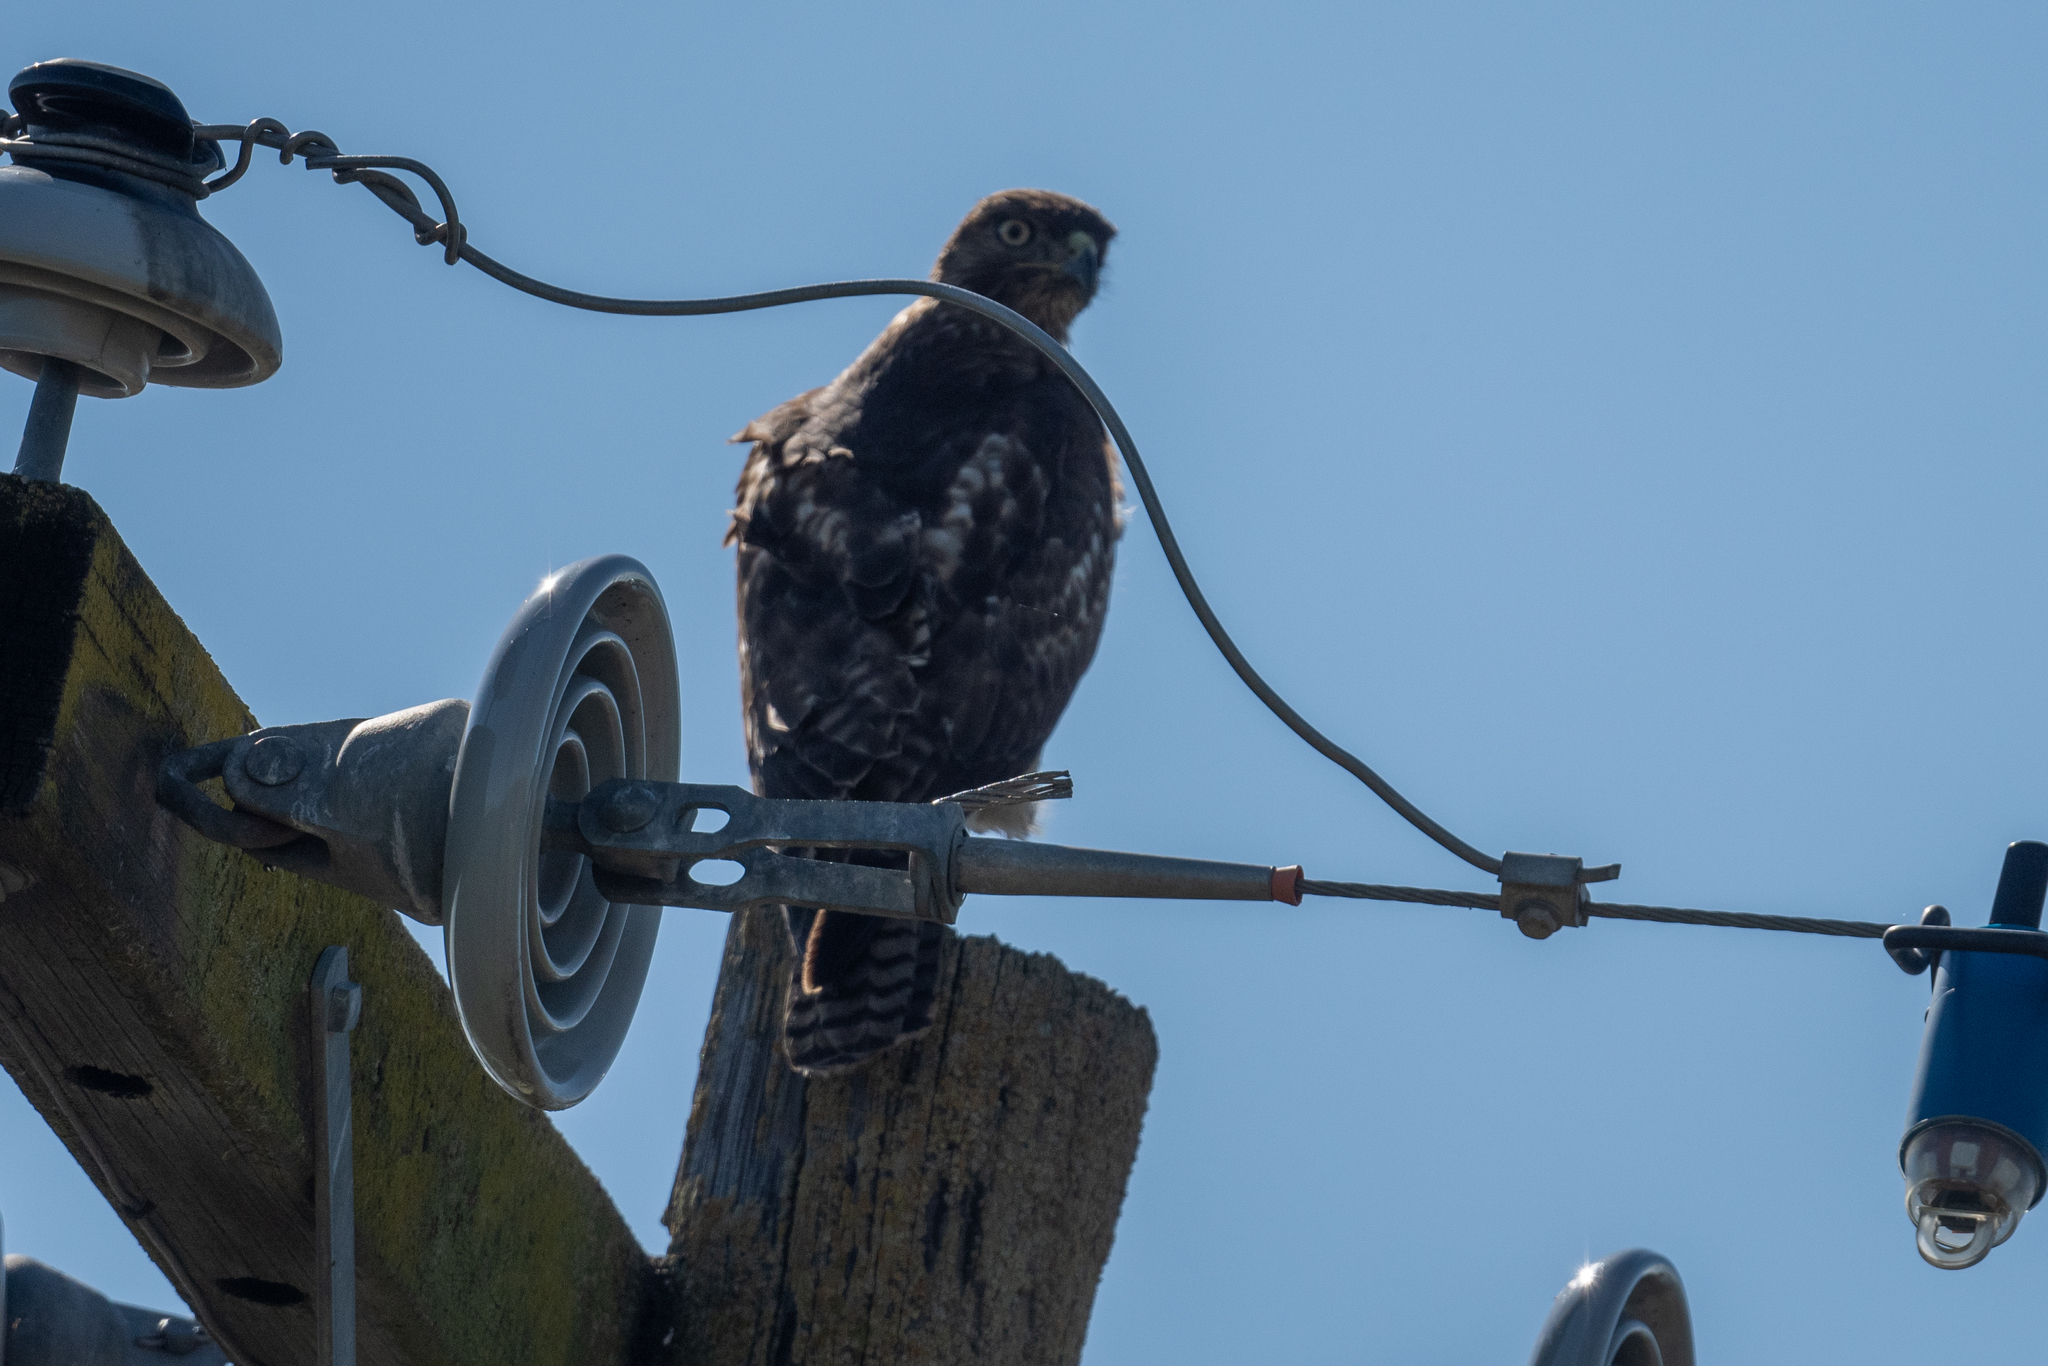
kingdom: Animalia
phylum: Chordata
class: Aves
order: Accipitriformes
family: Accipitridae
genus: Buteo
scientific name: Buteo jamaicensis
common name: Red-tailed hawk
